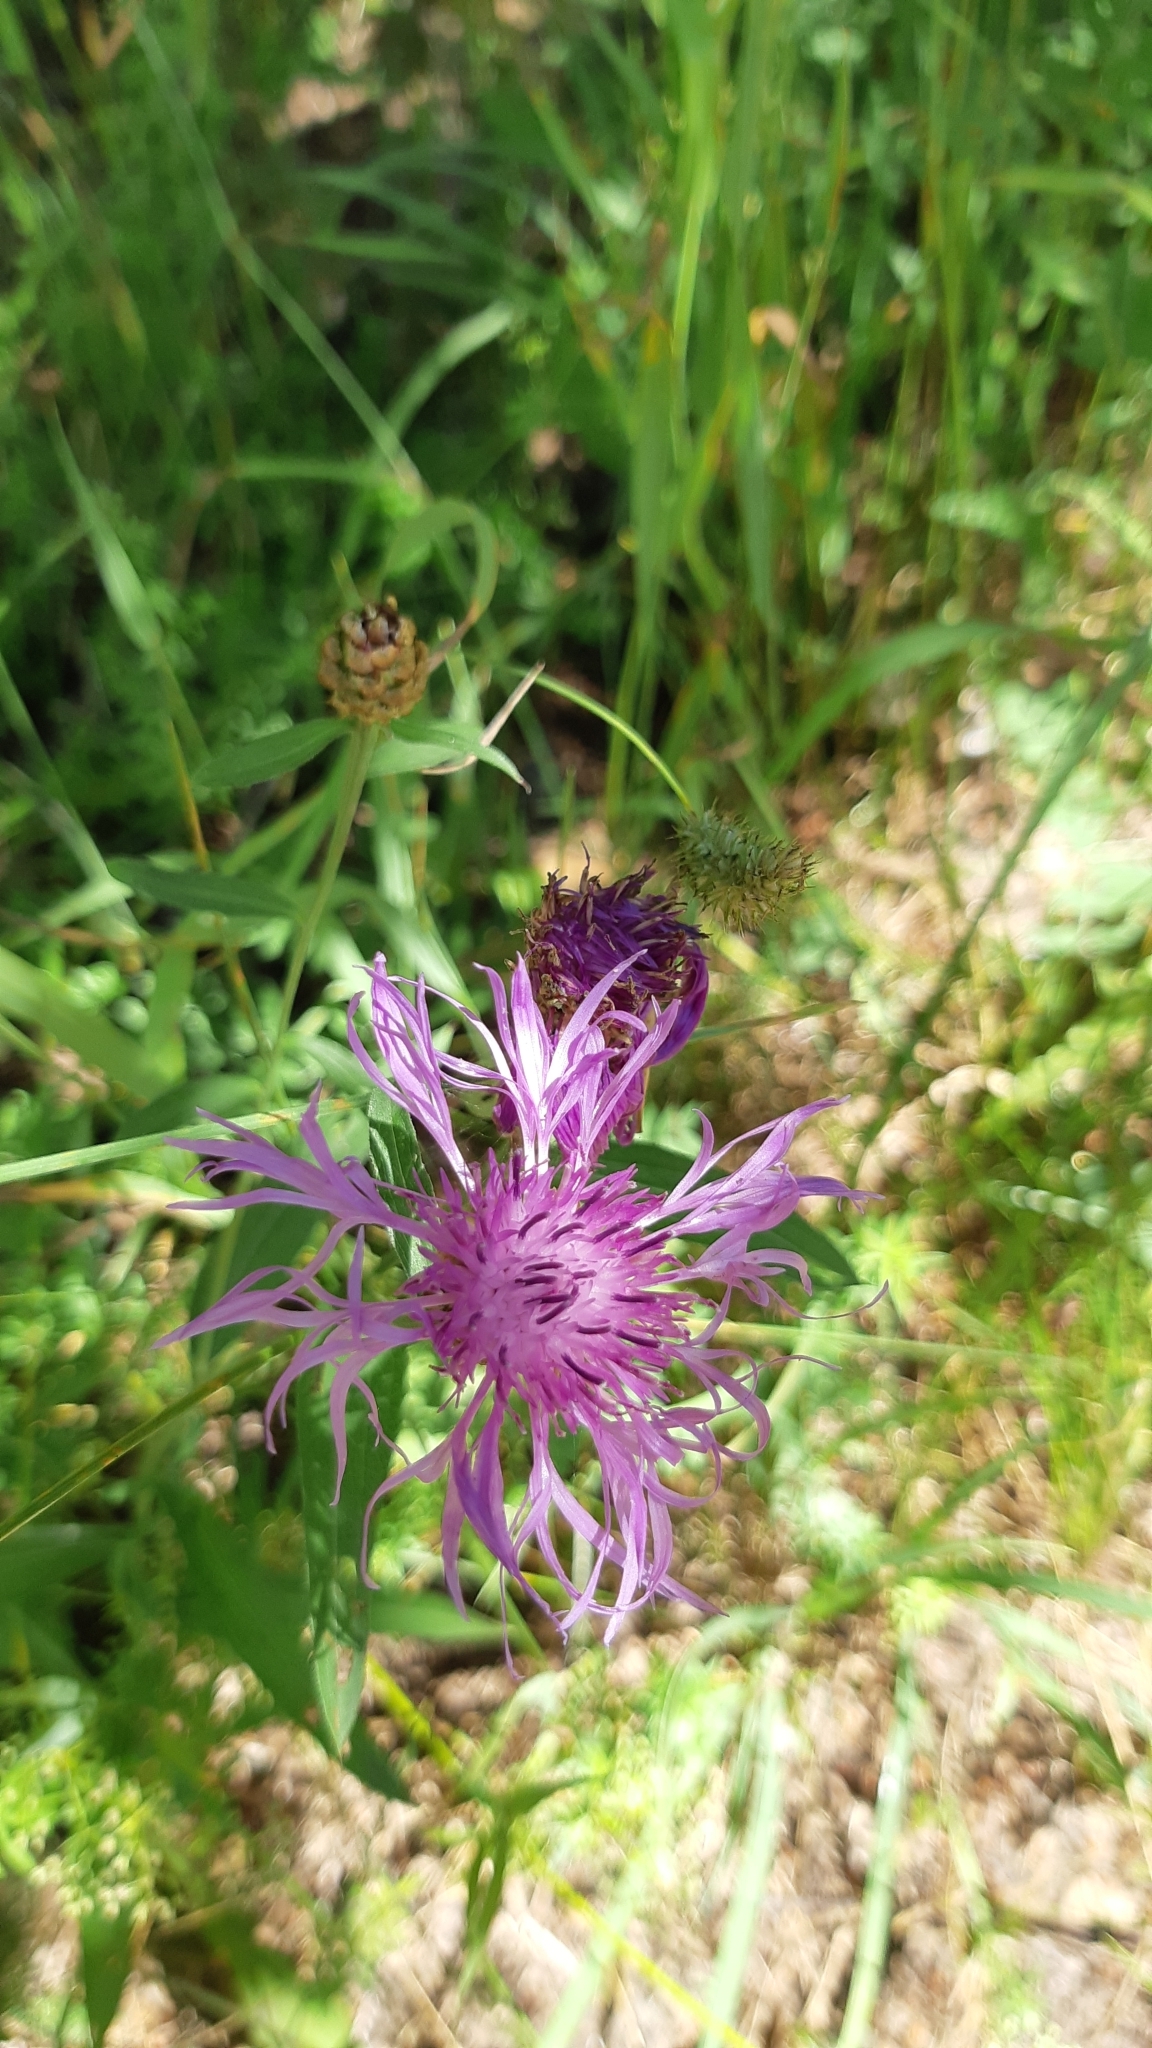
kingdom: Plantae
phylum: Tracheophyta
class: Magnoliopsida
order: Asterales
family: Asteraceae
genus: Centaurea
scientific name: Centaurea jacea
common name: Brown knapweed
